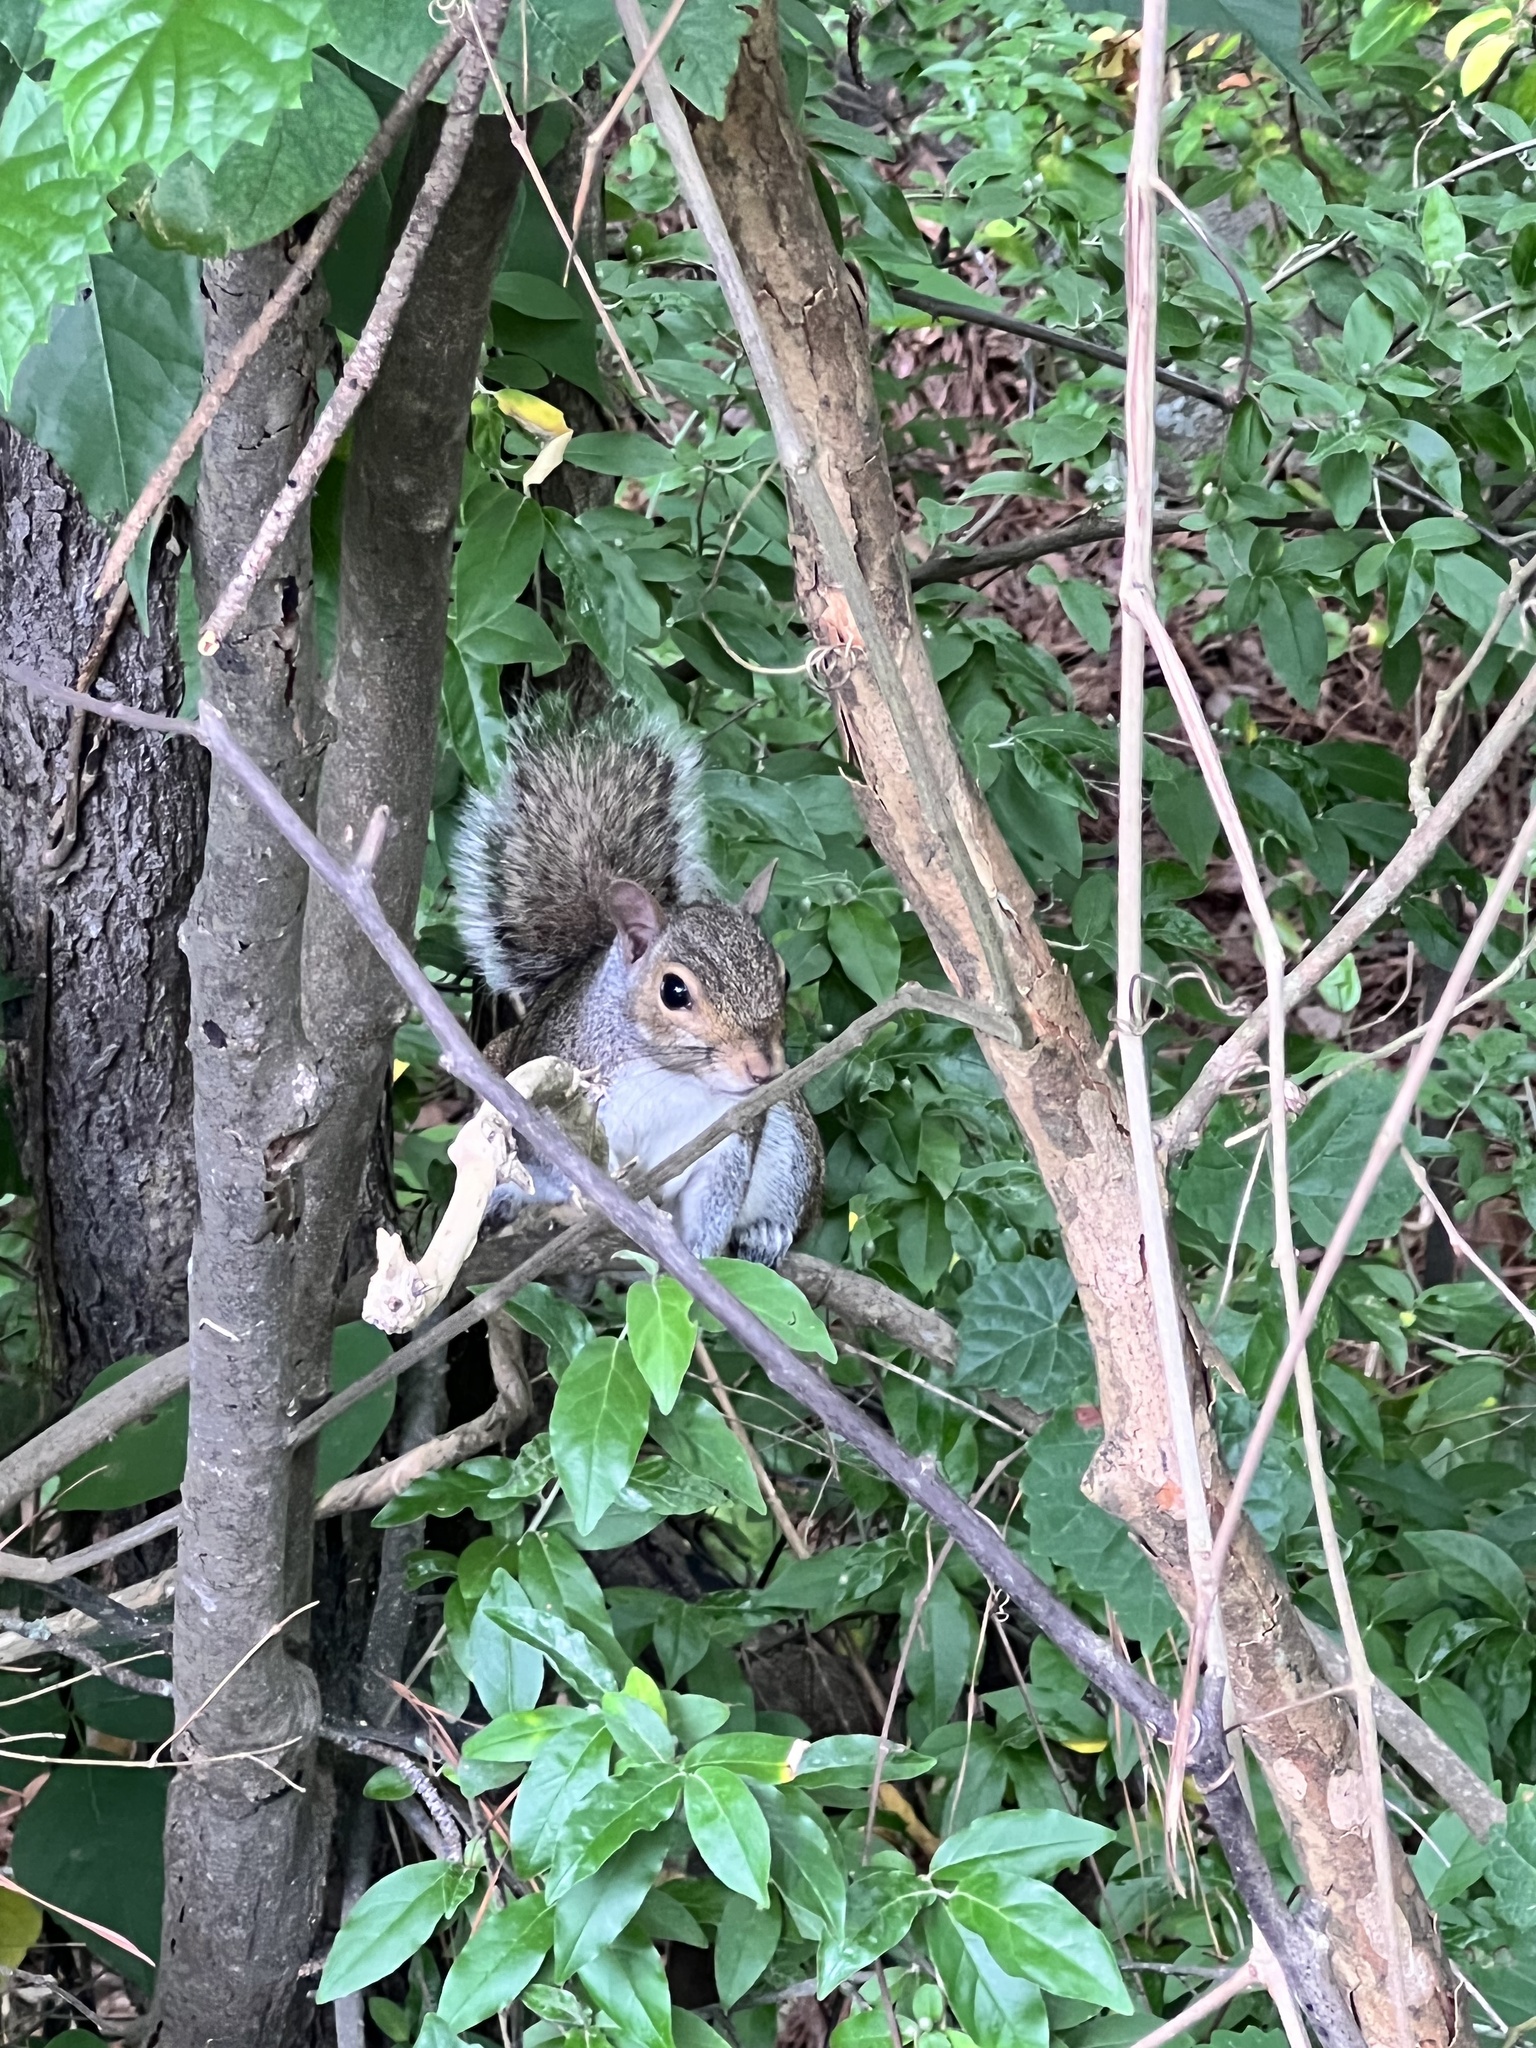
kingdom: Animalia
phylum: Chordata
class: Mammalia
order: Rodentia
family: Sciuridae
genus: Sciurus
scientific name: Sciurus carolinensis
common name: Eastern gray squirrel
